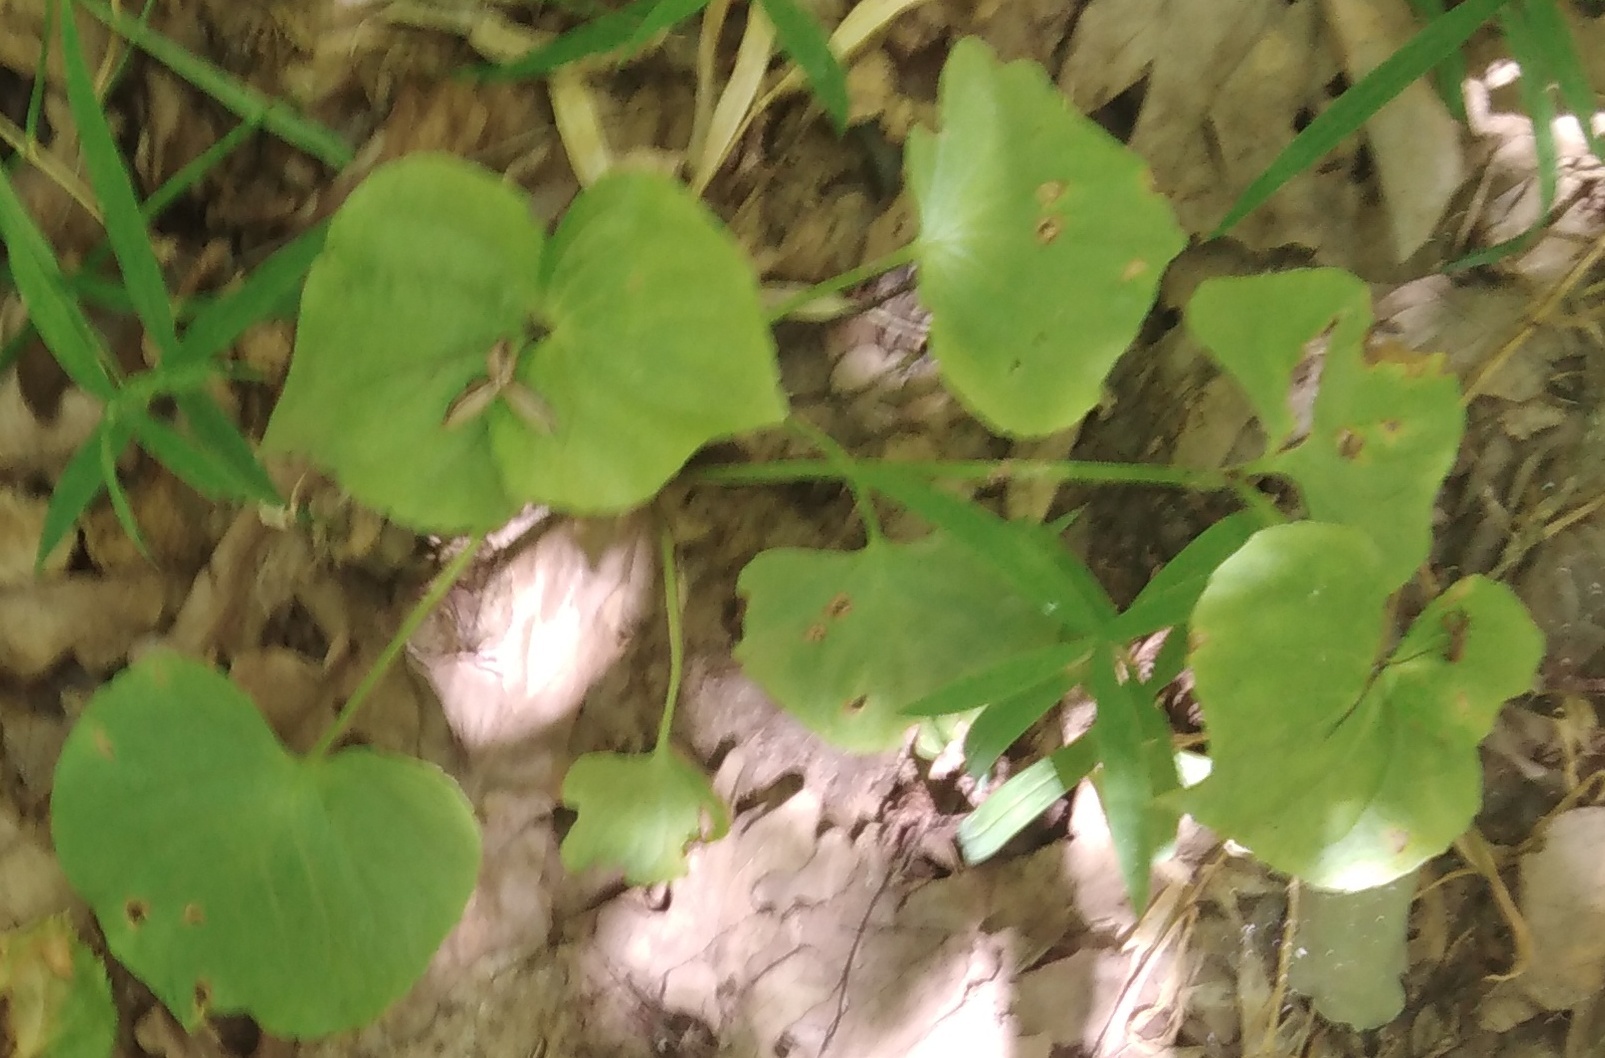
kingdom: Plantae
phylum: Tracheophyta
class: Magnoliopsida
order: Malpighiales
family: Violaceae
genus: Viola
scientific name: Viola mirabilis
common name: Wonder violet
